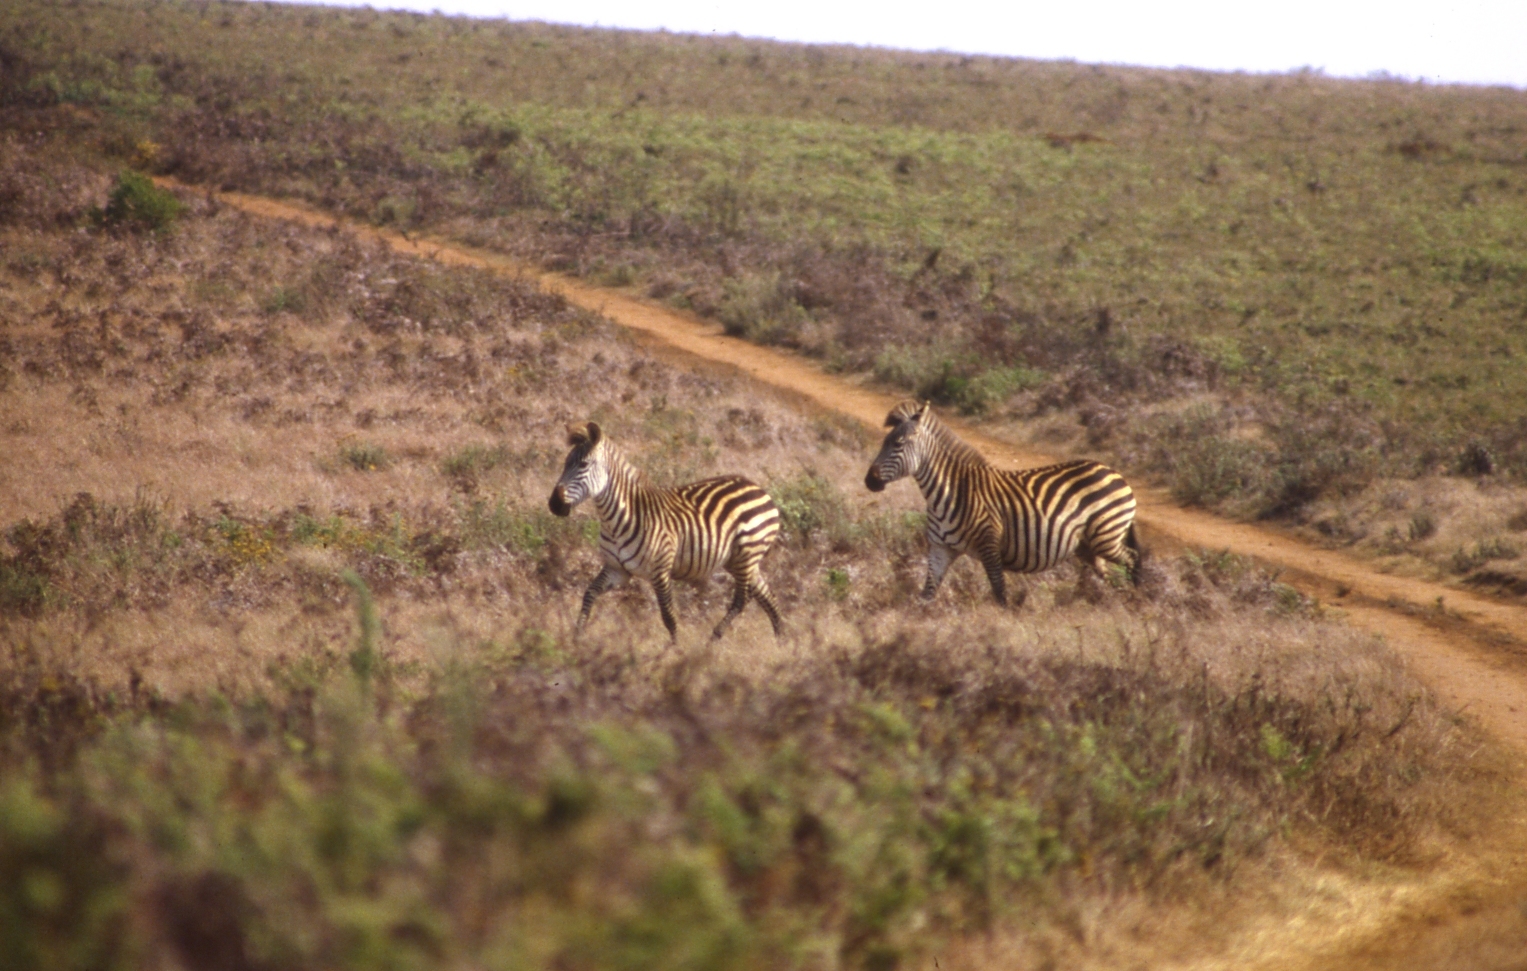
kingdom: Animalia
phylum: Chordata
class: Mammalia
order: Perissodactyla
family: Equidae
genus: Equus
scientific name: Equus quagga
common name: Plains zebra
